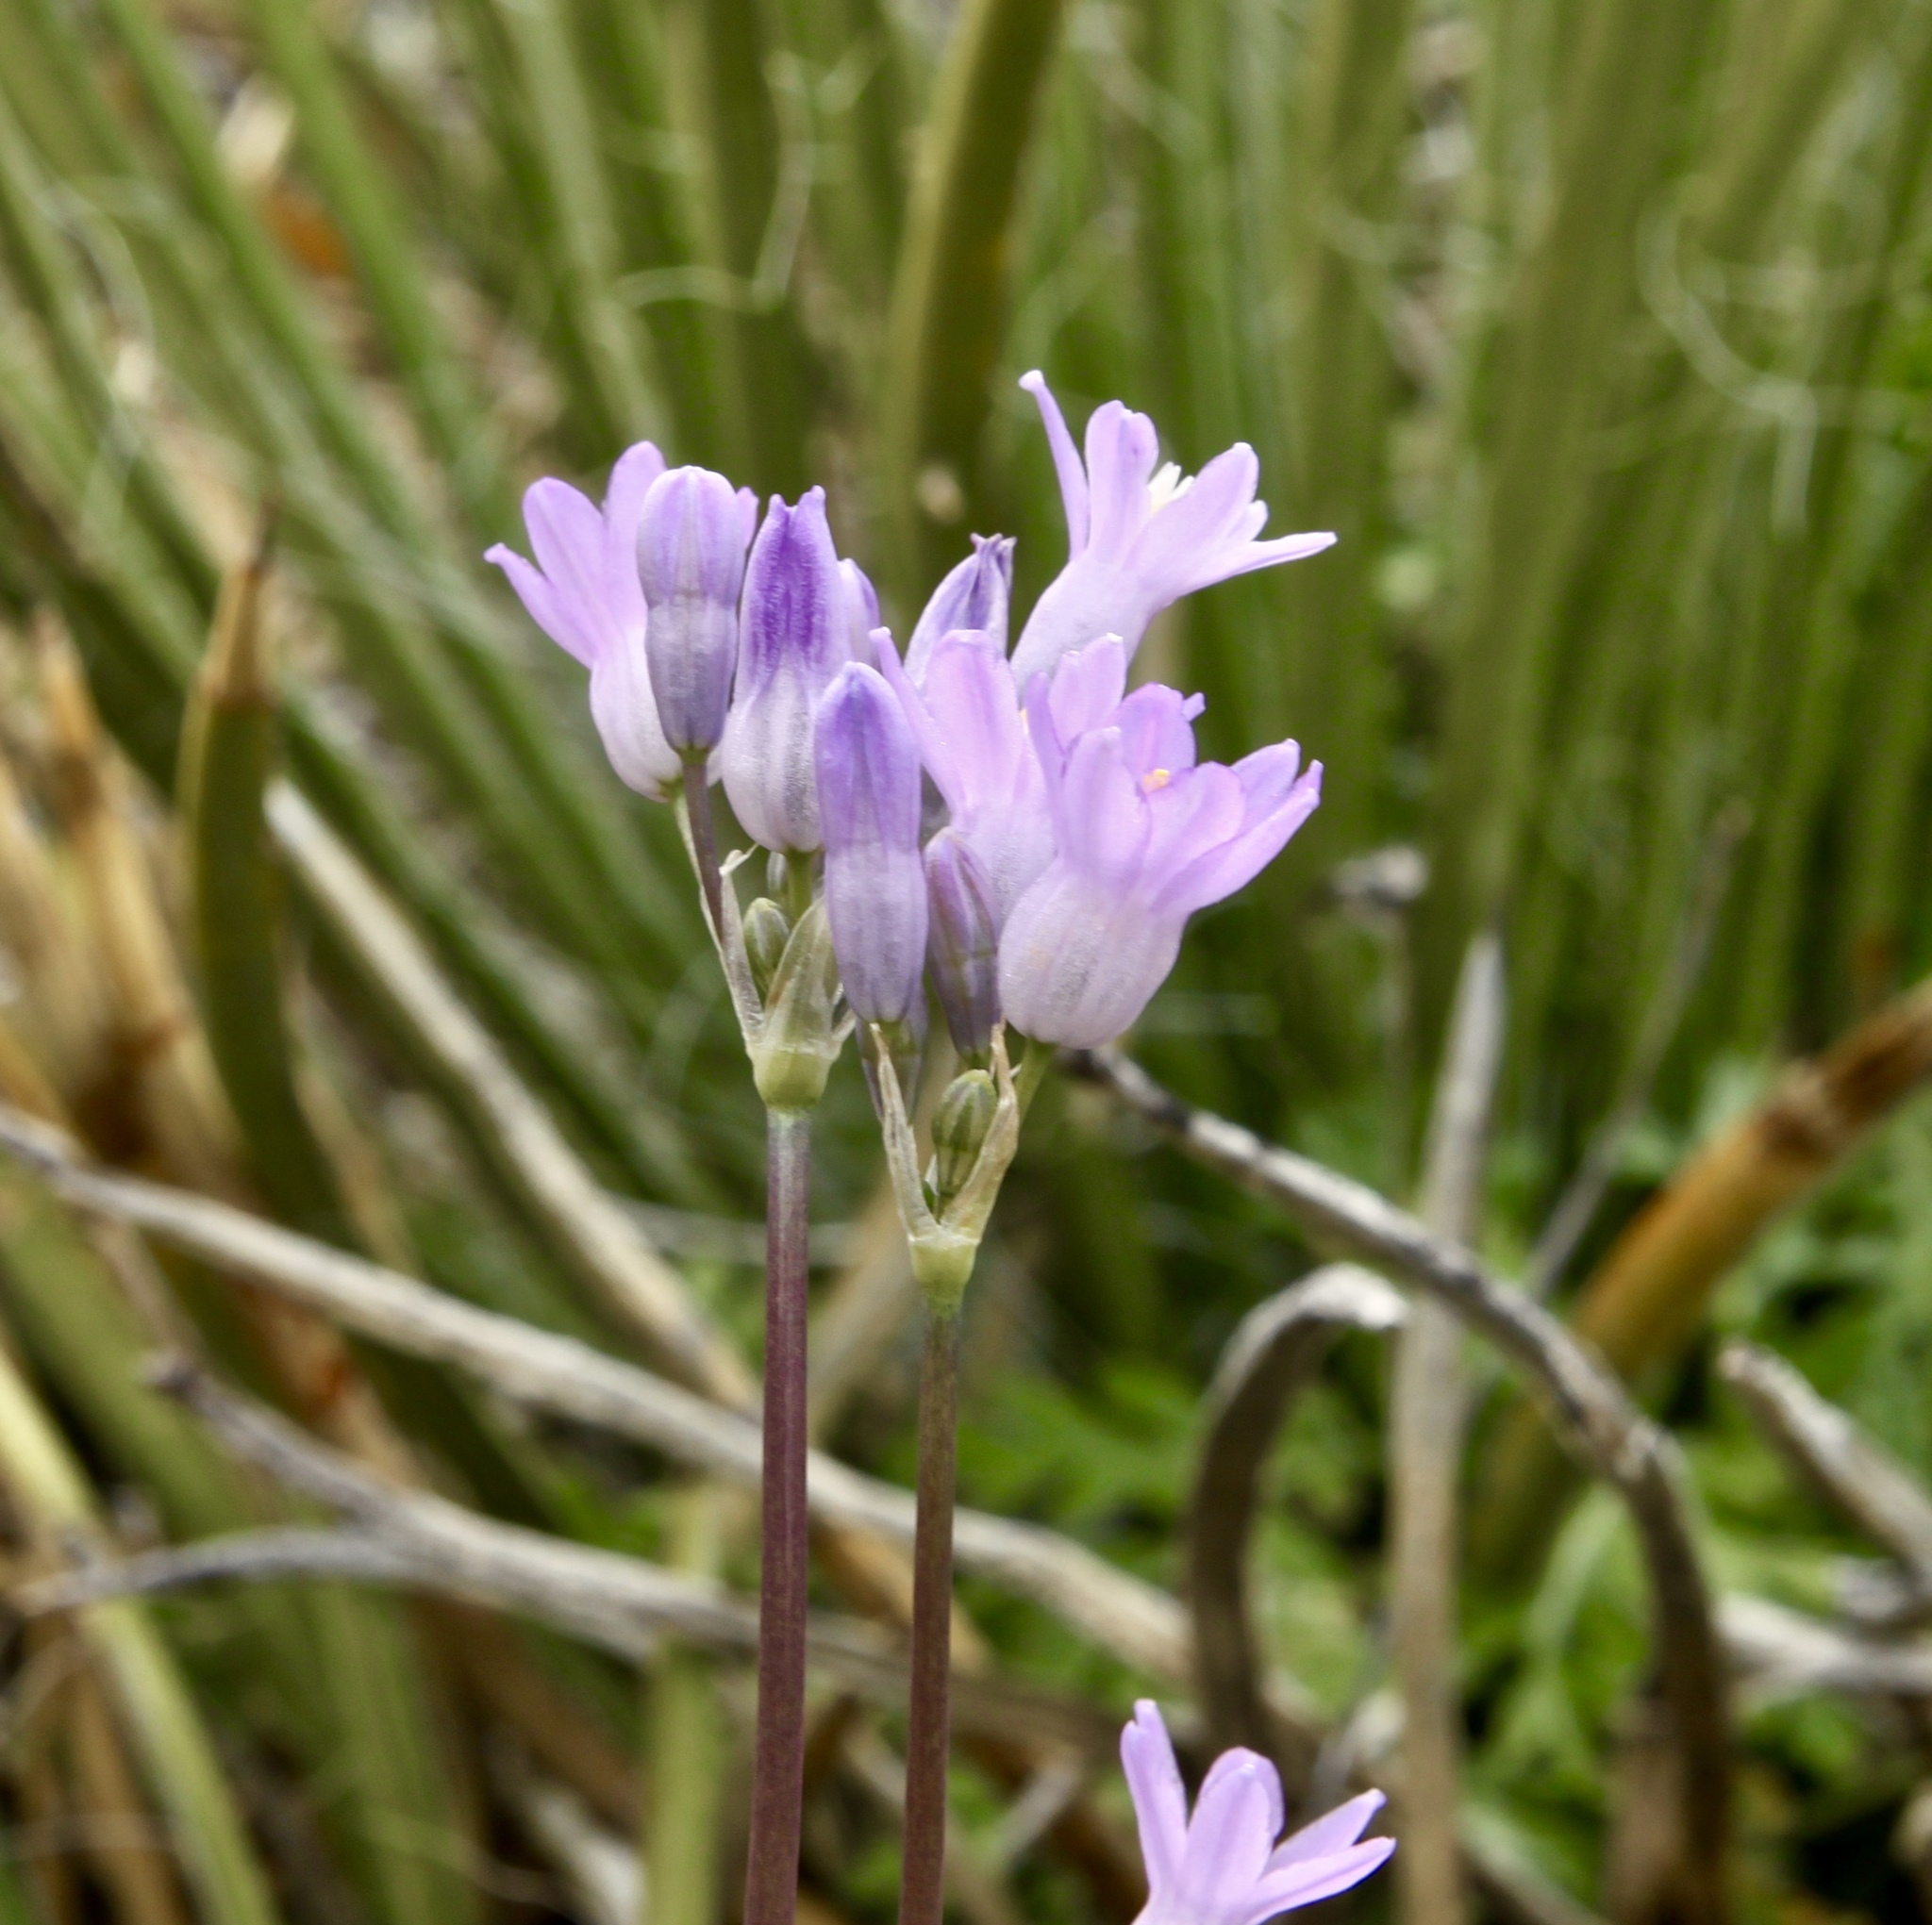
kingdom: Plantae
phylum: Tracheophyta
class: Liliopsida
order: Asparagales
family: Asparagaceae
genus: Dipterostemon
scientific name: Dipterostemon capitatus
